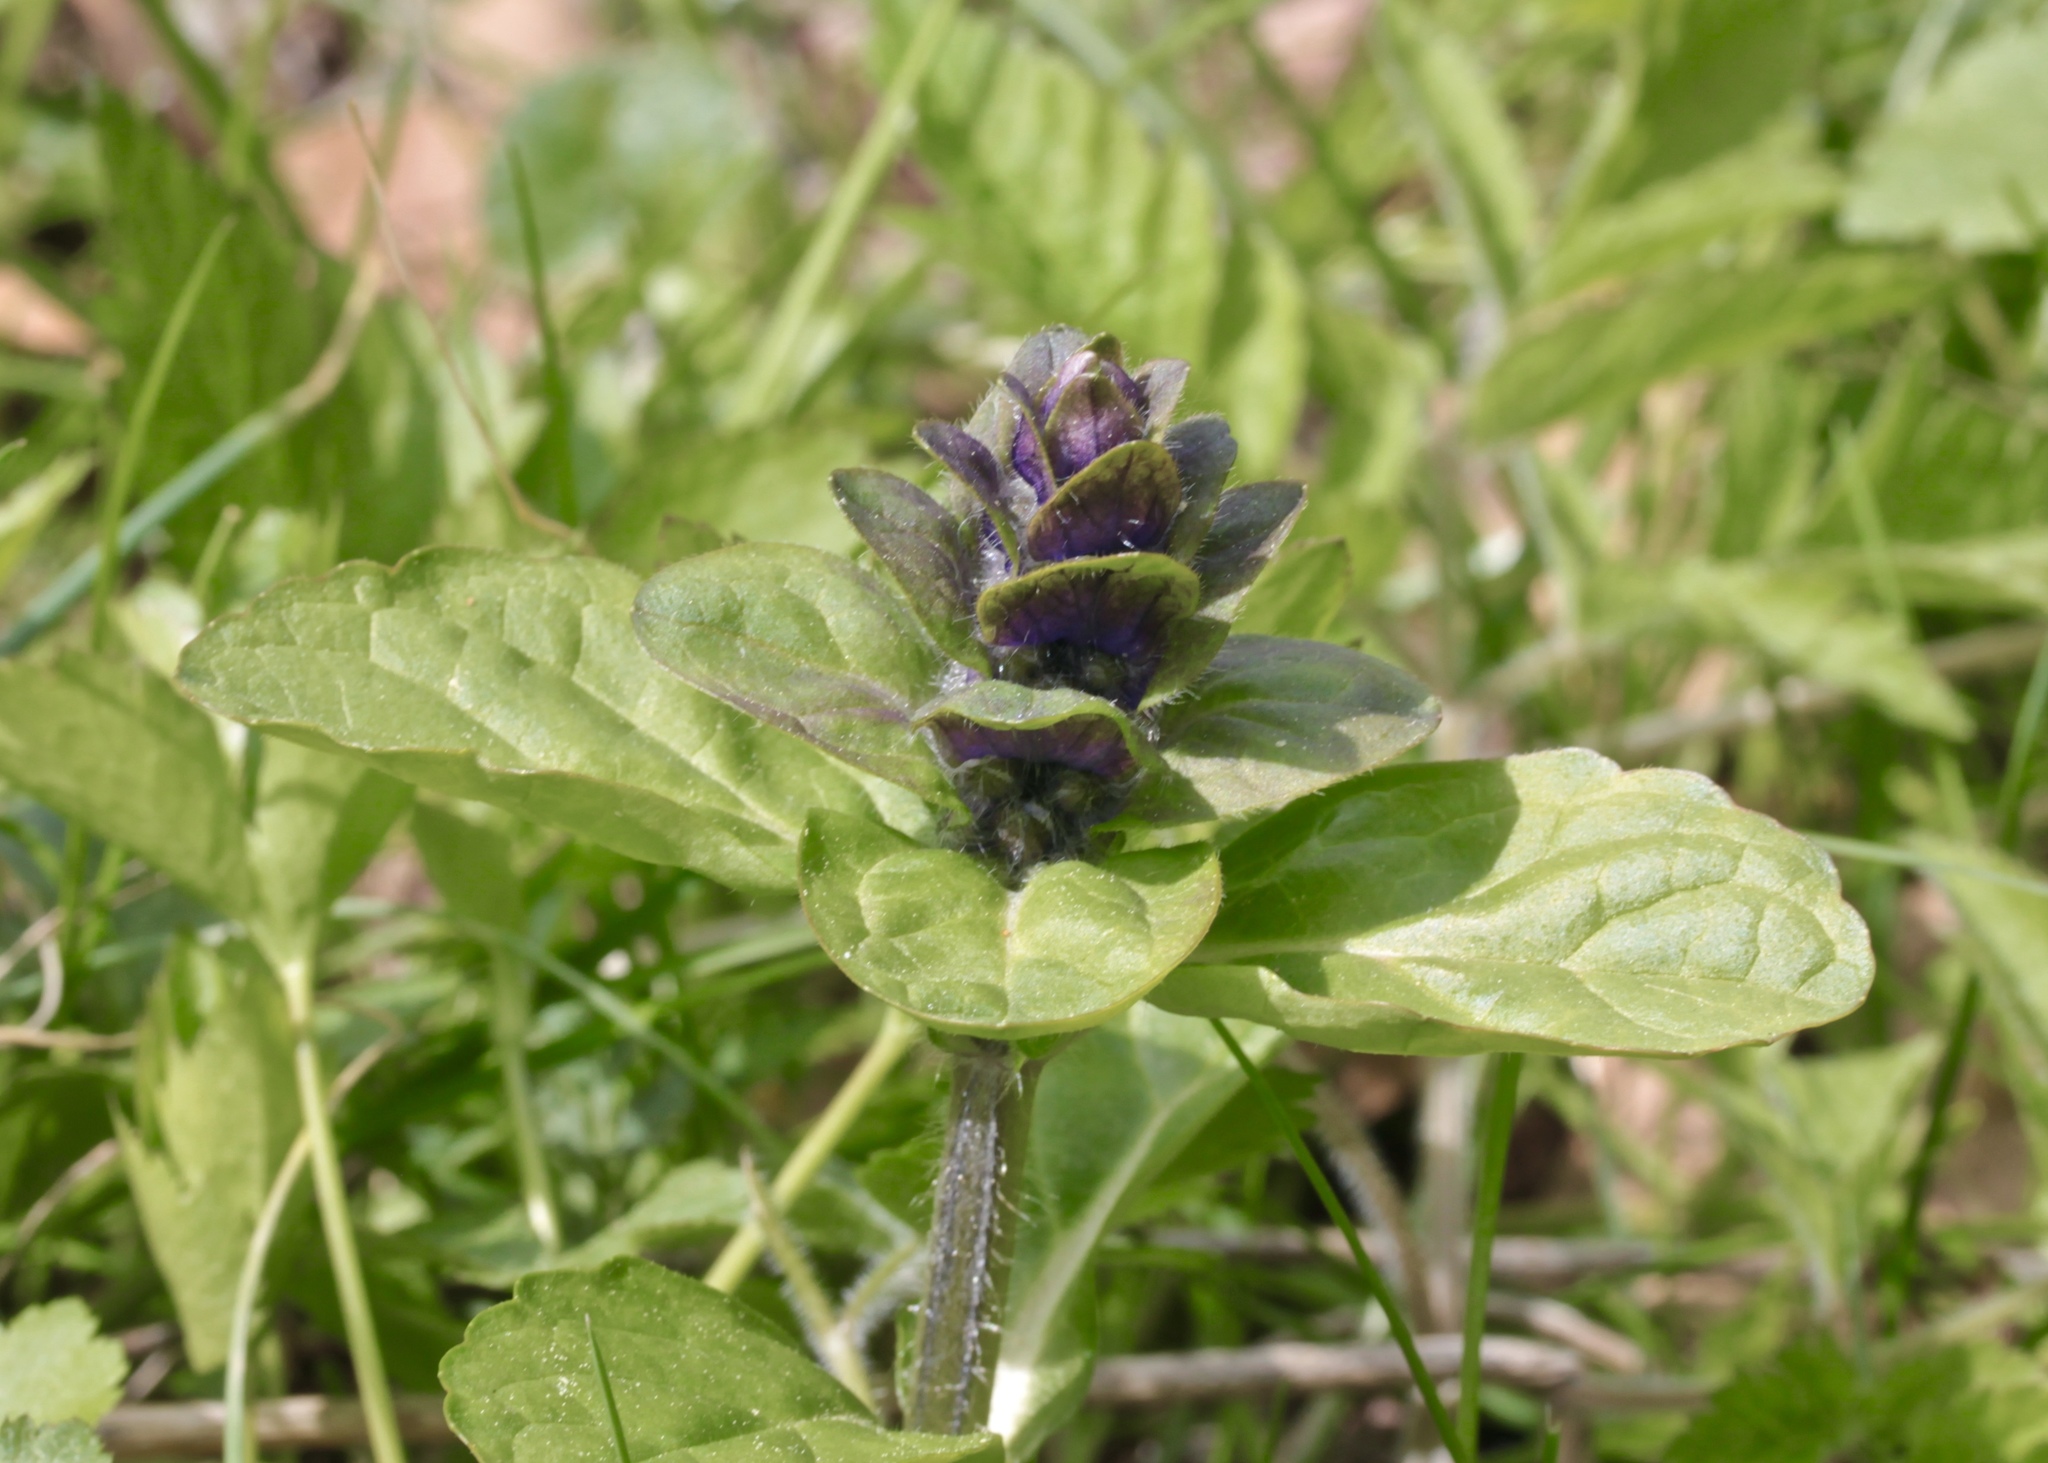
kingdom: Plantae
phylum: Tracheophyta
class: Magnoliopsida
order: Lamiales
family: Lamiaceae
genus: Ajuga
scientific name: Ajuga reptans
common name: Bugle
